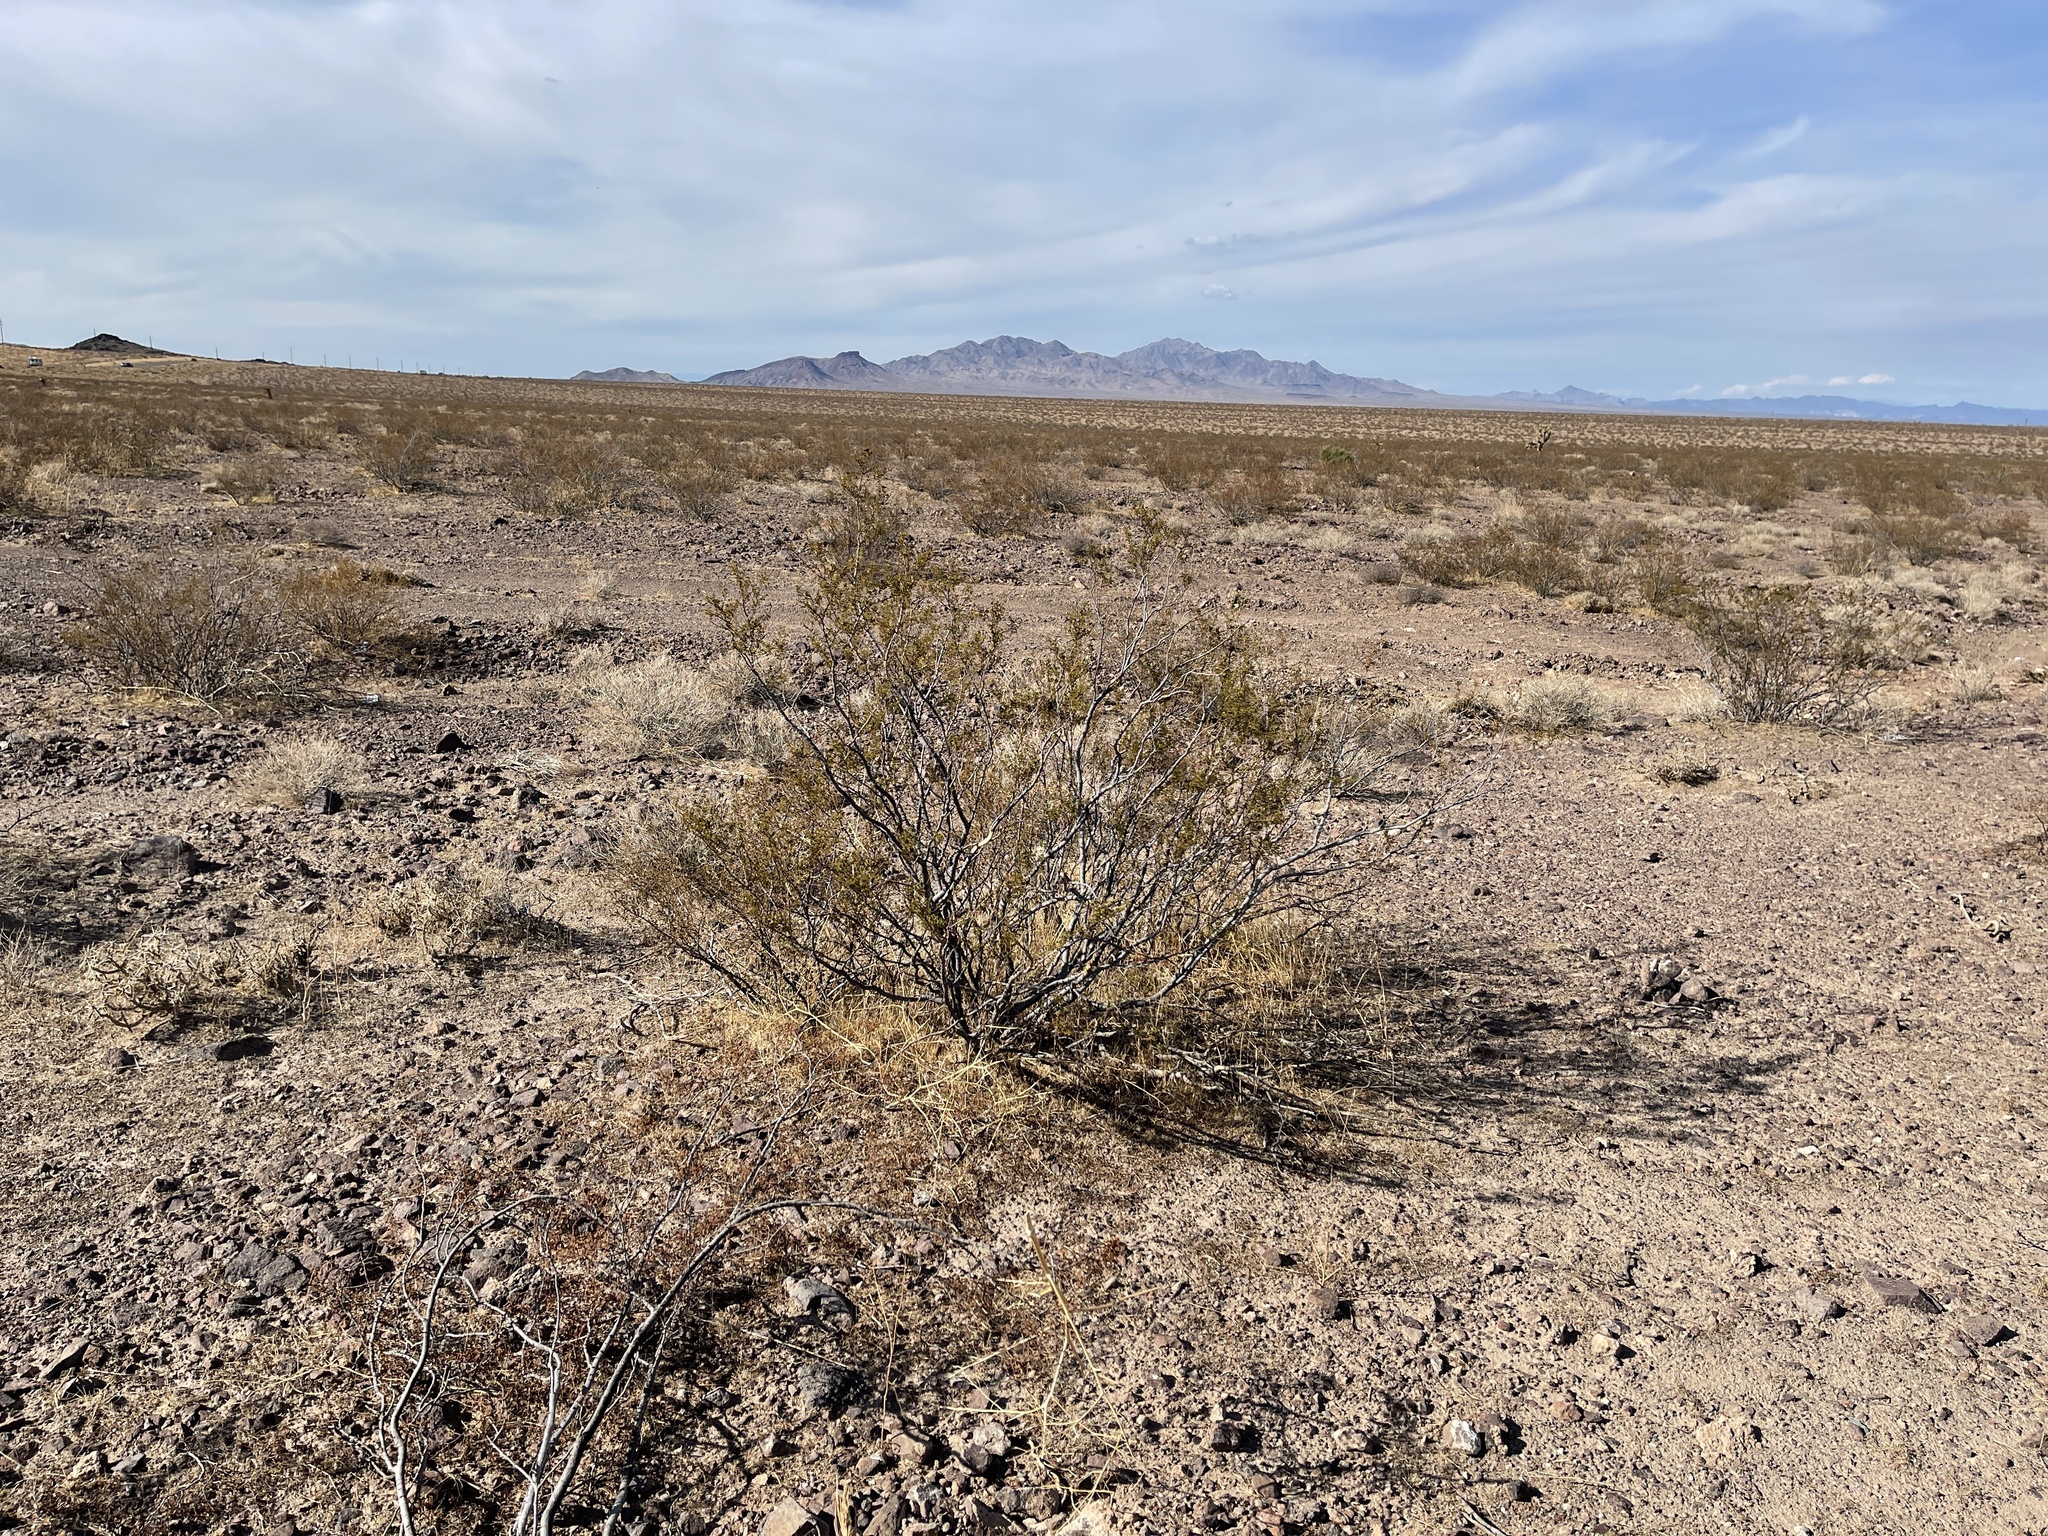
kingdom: Plantae
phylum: Tracheophyta
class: Magnoliopsida
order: Zygophyllales
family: Zygophyllaceae
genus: Larrea
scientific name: Larrea tridentata
